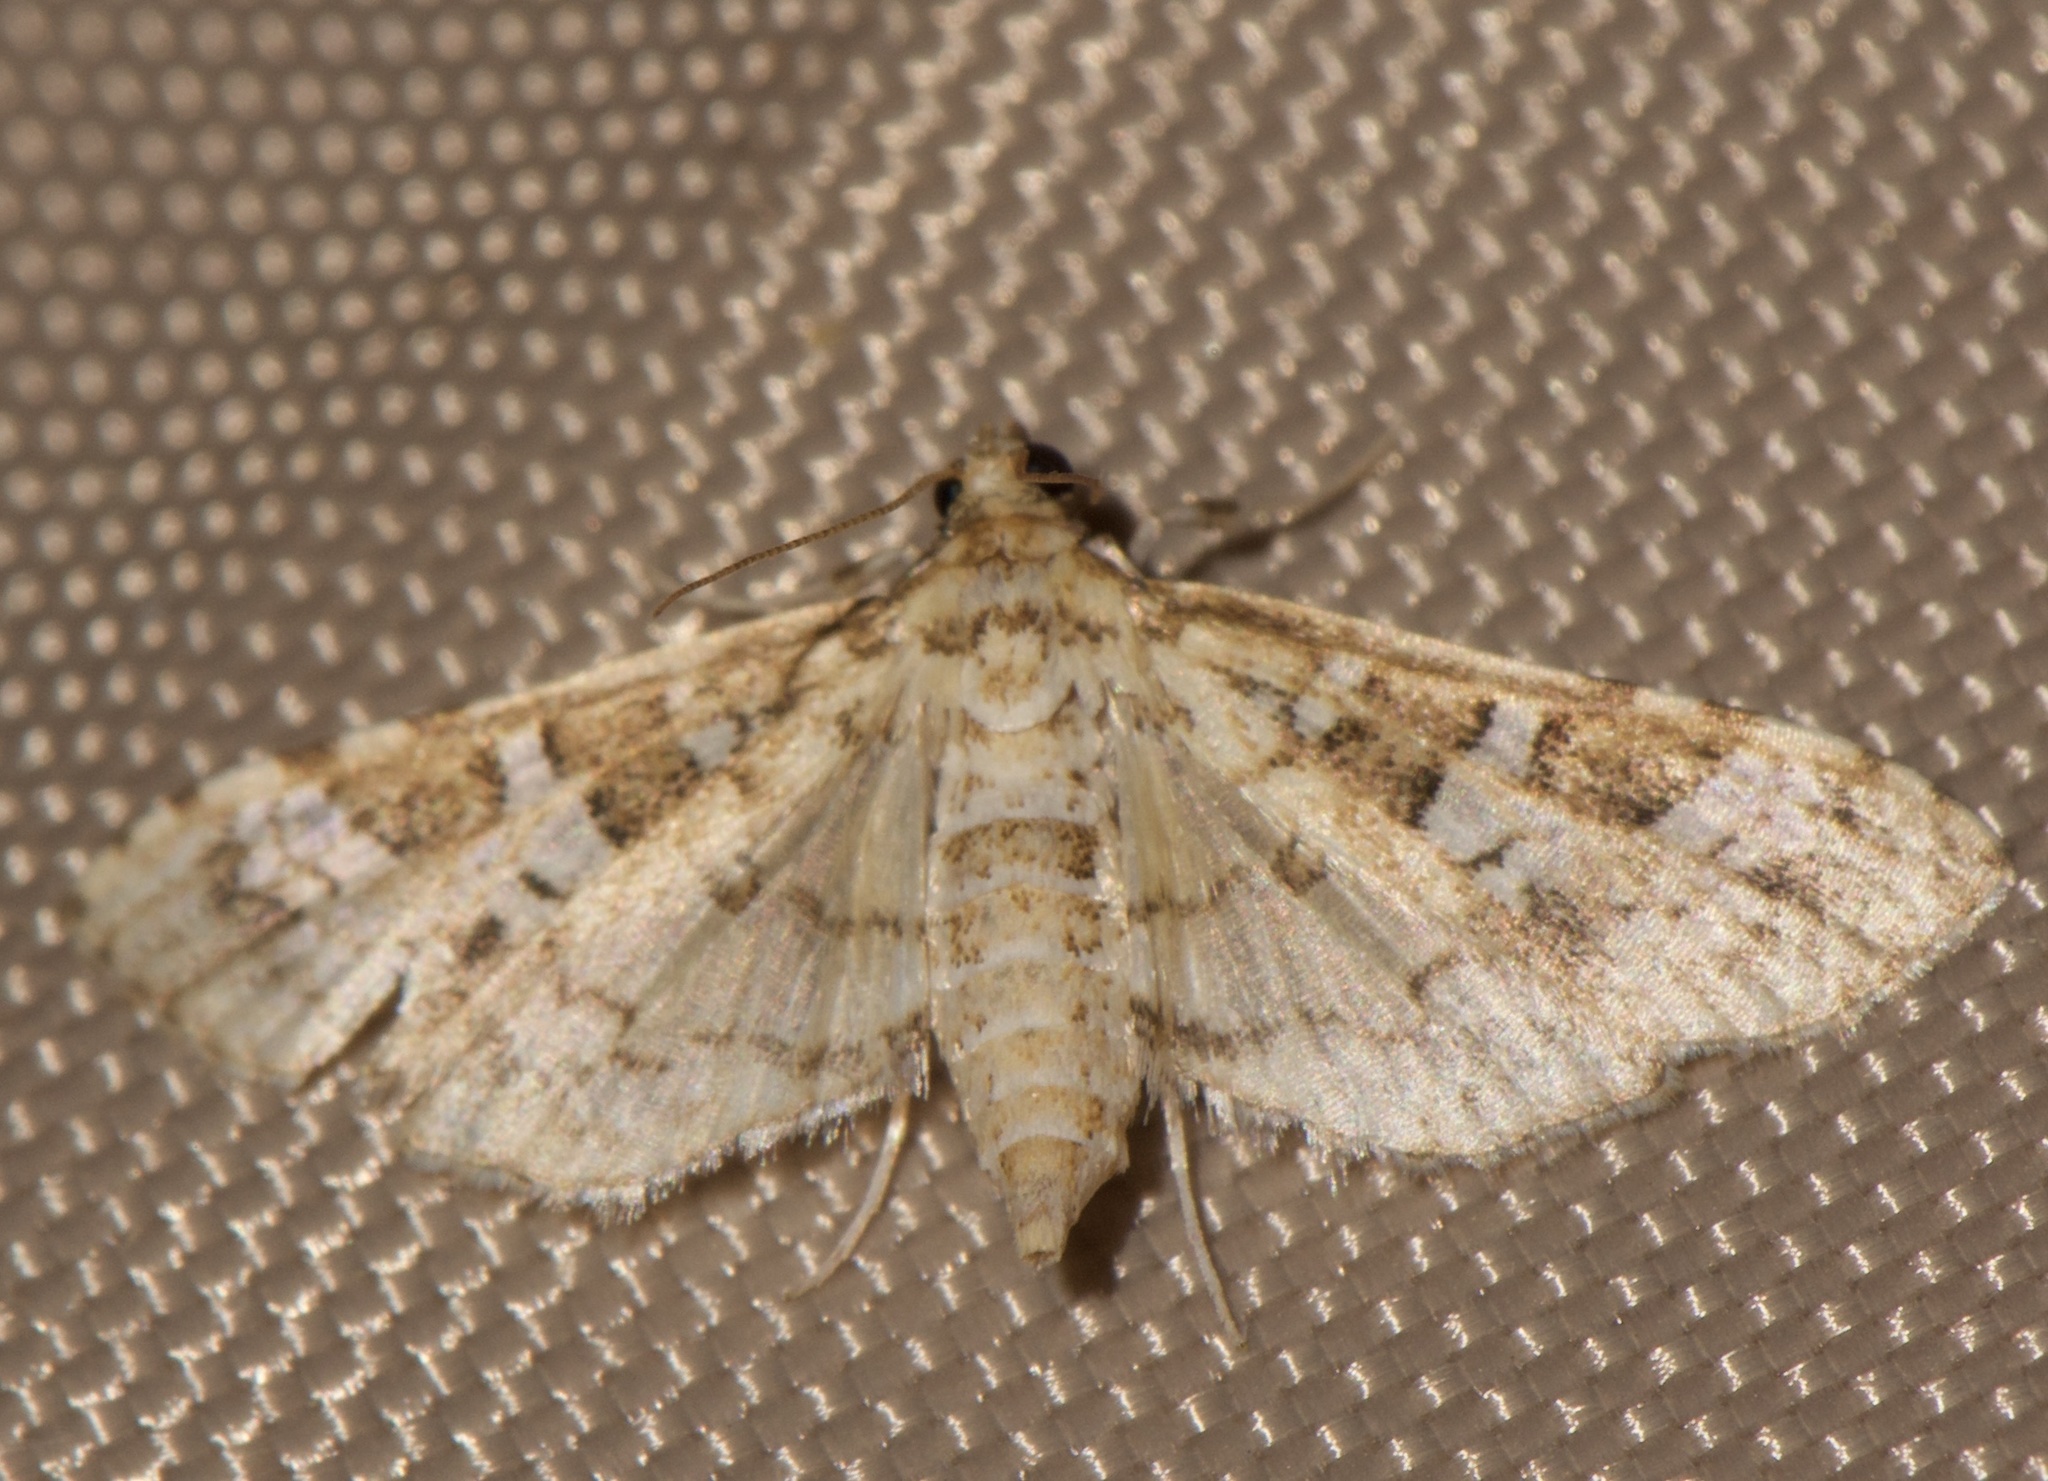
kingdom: Animalia
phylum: Arthropoda
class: Insecta
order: Lepidoptera
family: Crambidae
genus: Samea
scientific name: Samea multiplicalis
